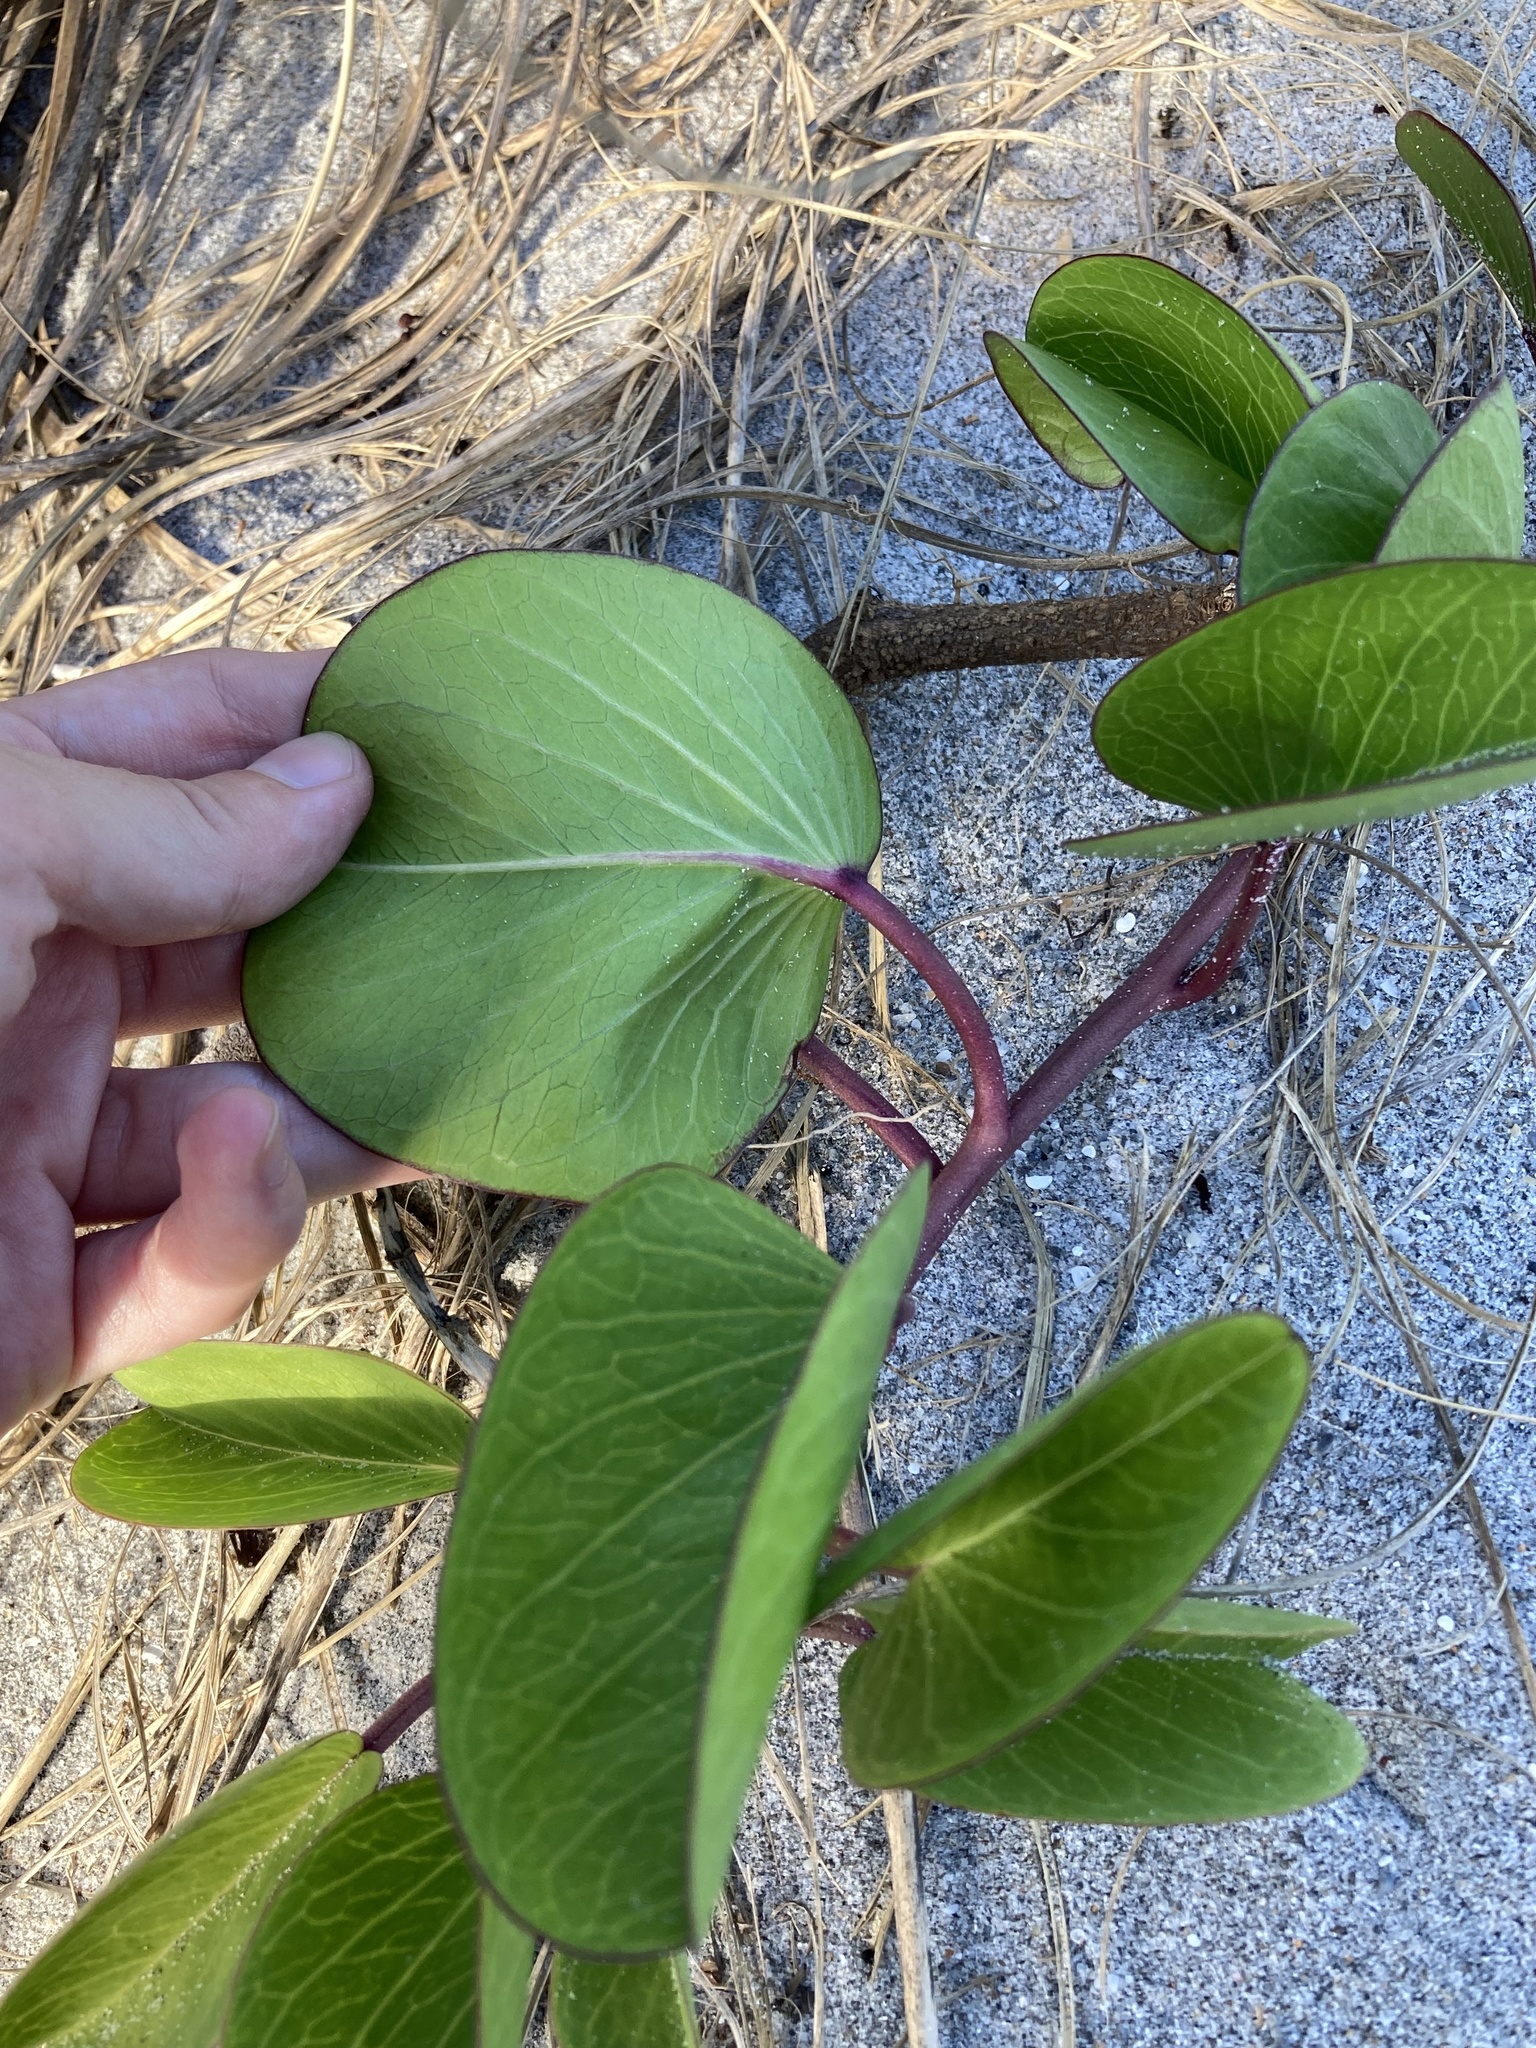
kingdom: Plantae
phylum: Tracheophyta
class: Magnoliopsida
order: Solanales
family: Convolvulaceae
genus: Ipomoea
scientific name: Ipomoea pes-caprae
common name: Beach morning glory
